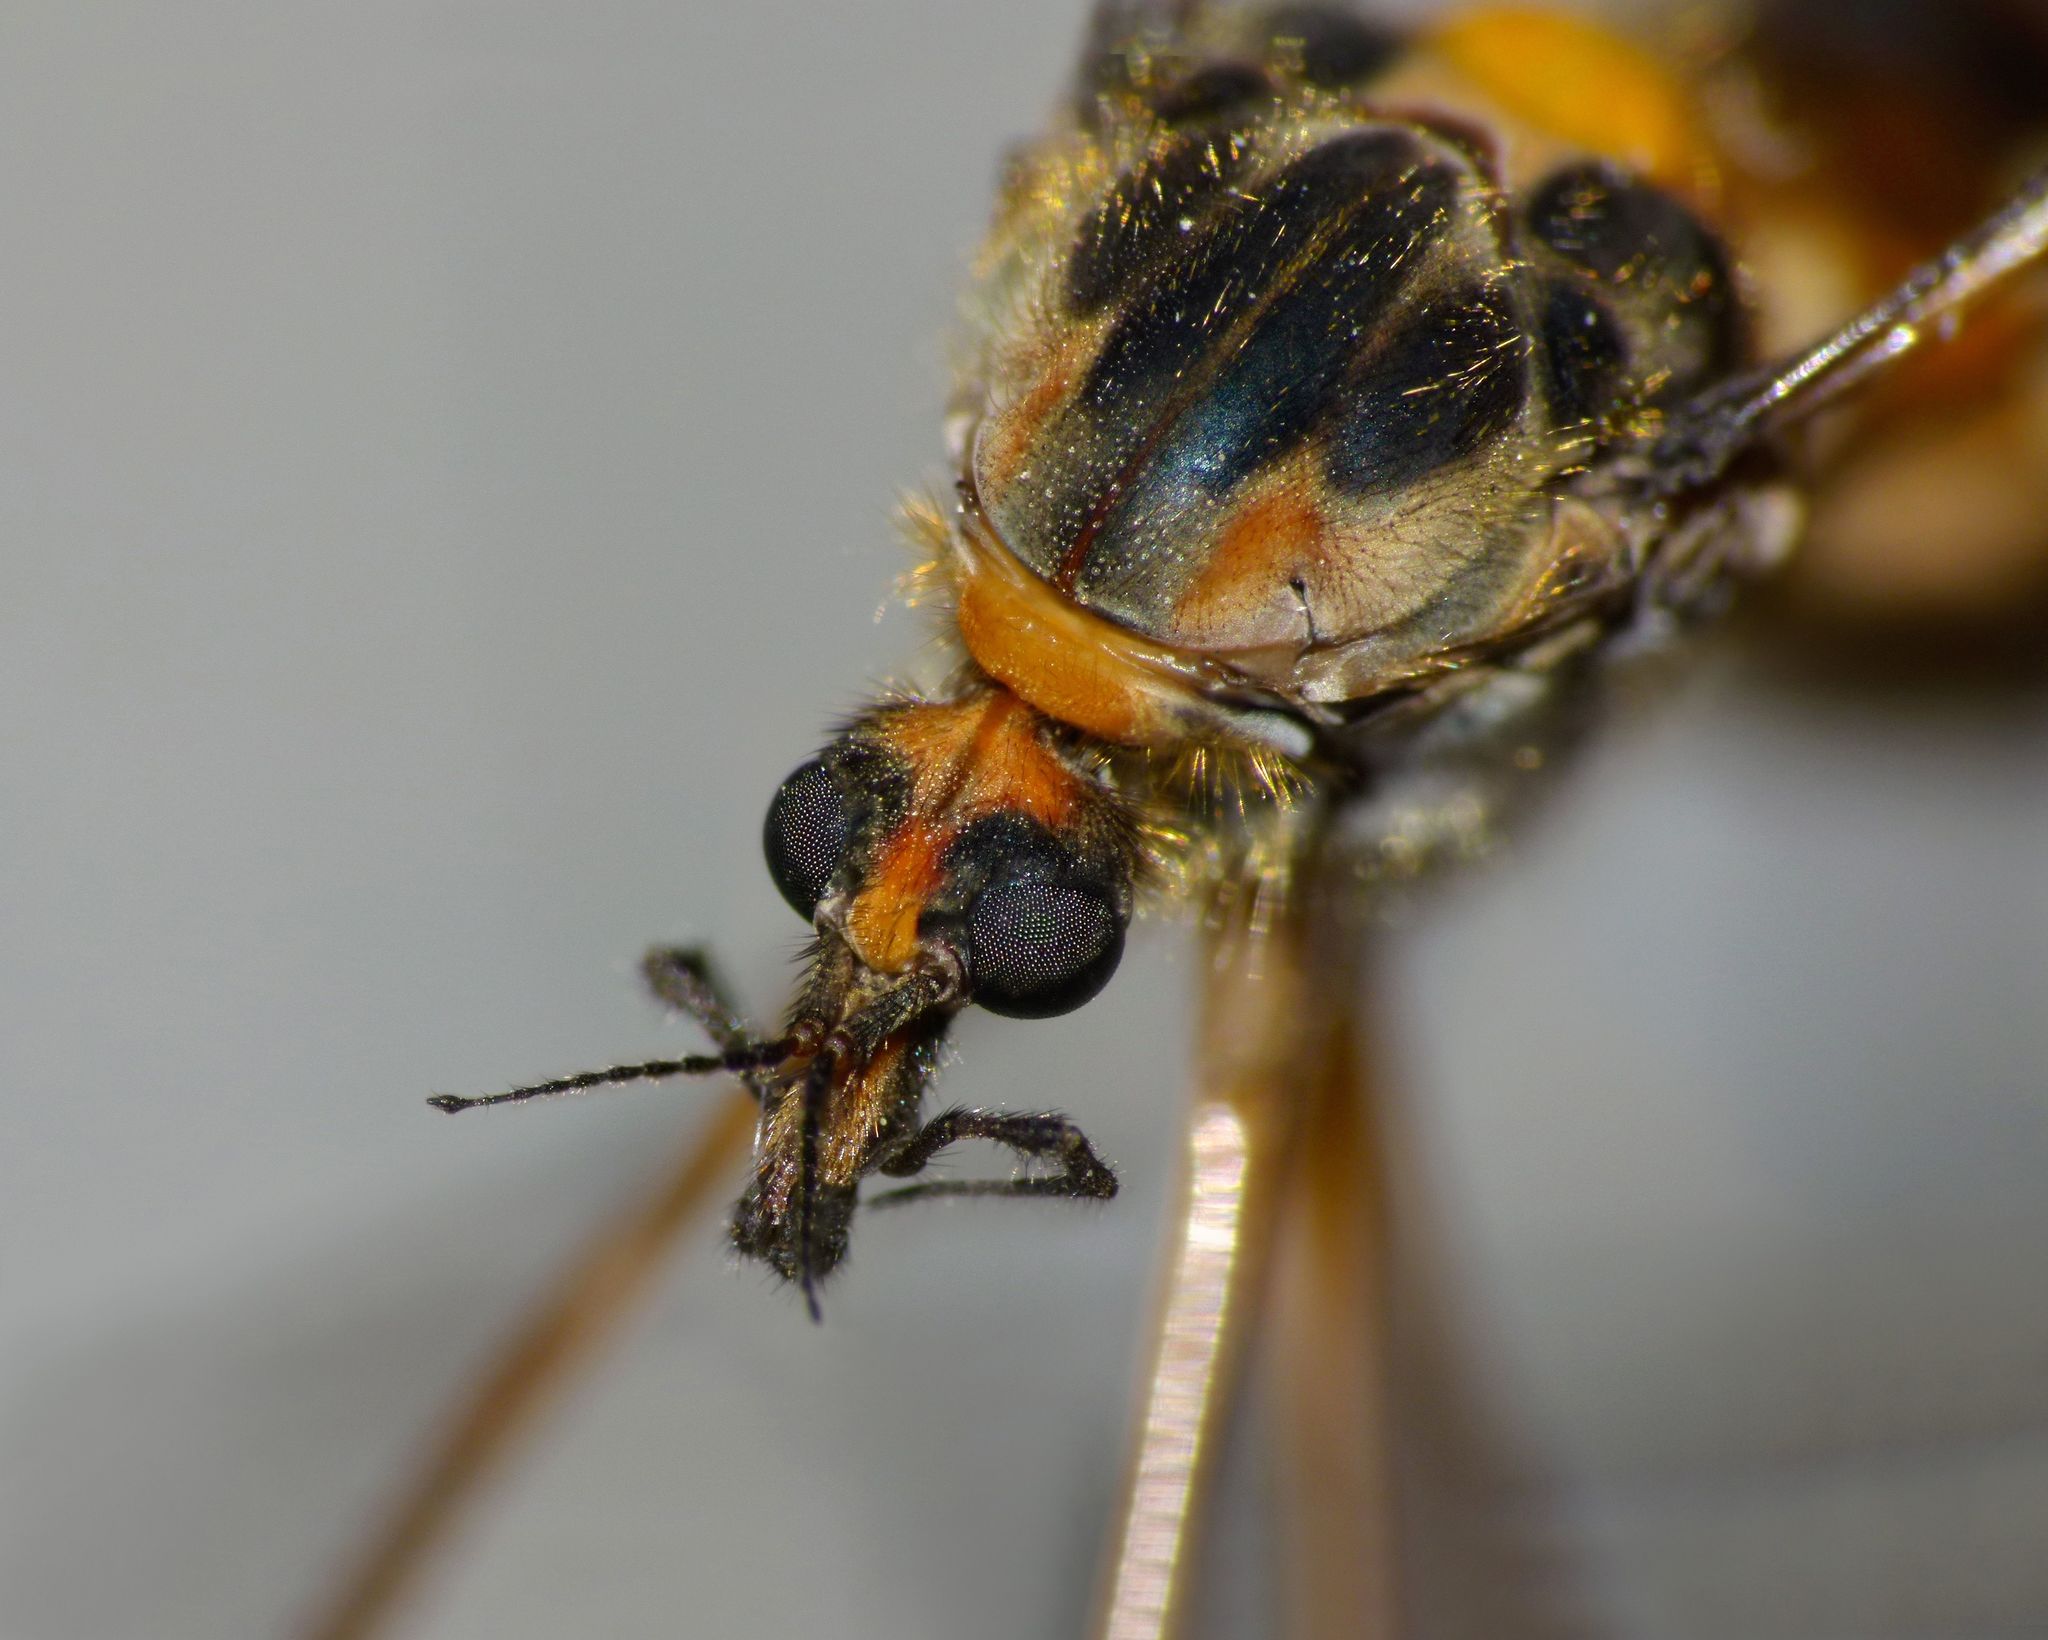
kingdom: Animalia
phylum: Arthropoda
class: Insecta
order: Diptera
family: Tipulidae
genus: Leptotarsus
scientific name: Leptotarsus fucatus
